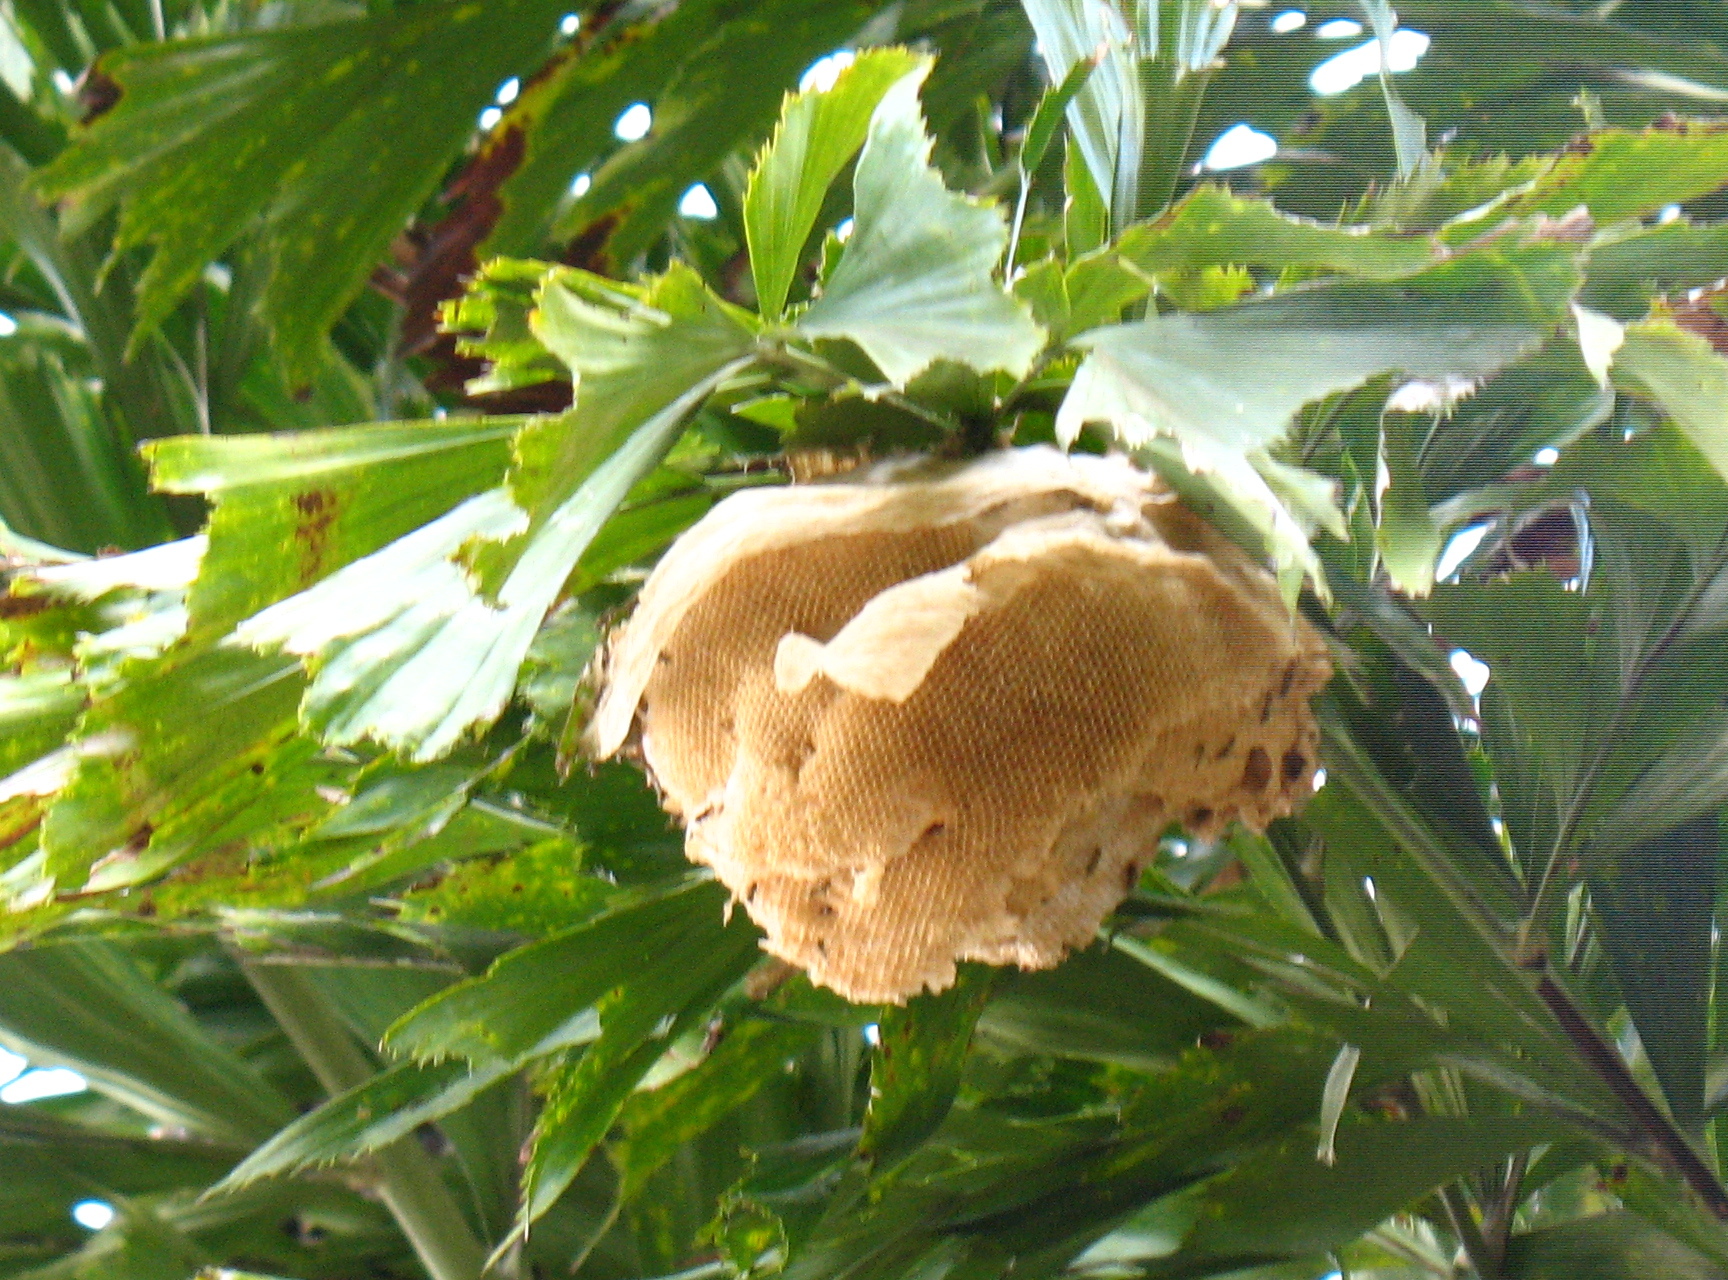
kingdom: Animalia
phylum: Arthropoda
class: Insecta
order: Hymenoptera
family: Apidae
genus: Apis
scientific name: Apis mellifera
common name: Honey bee
